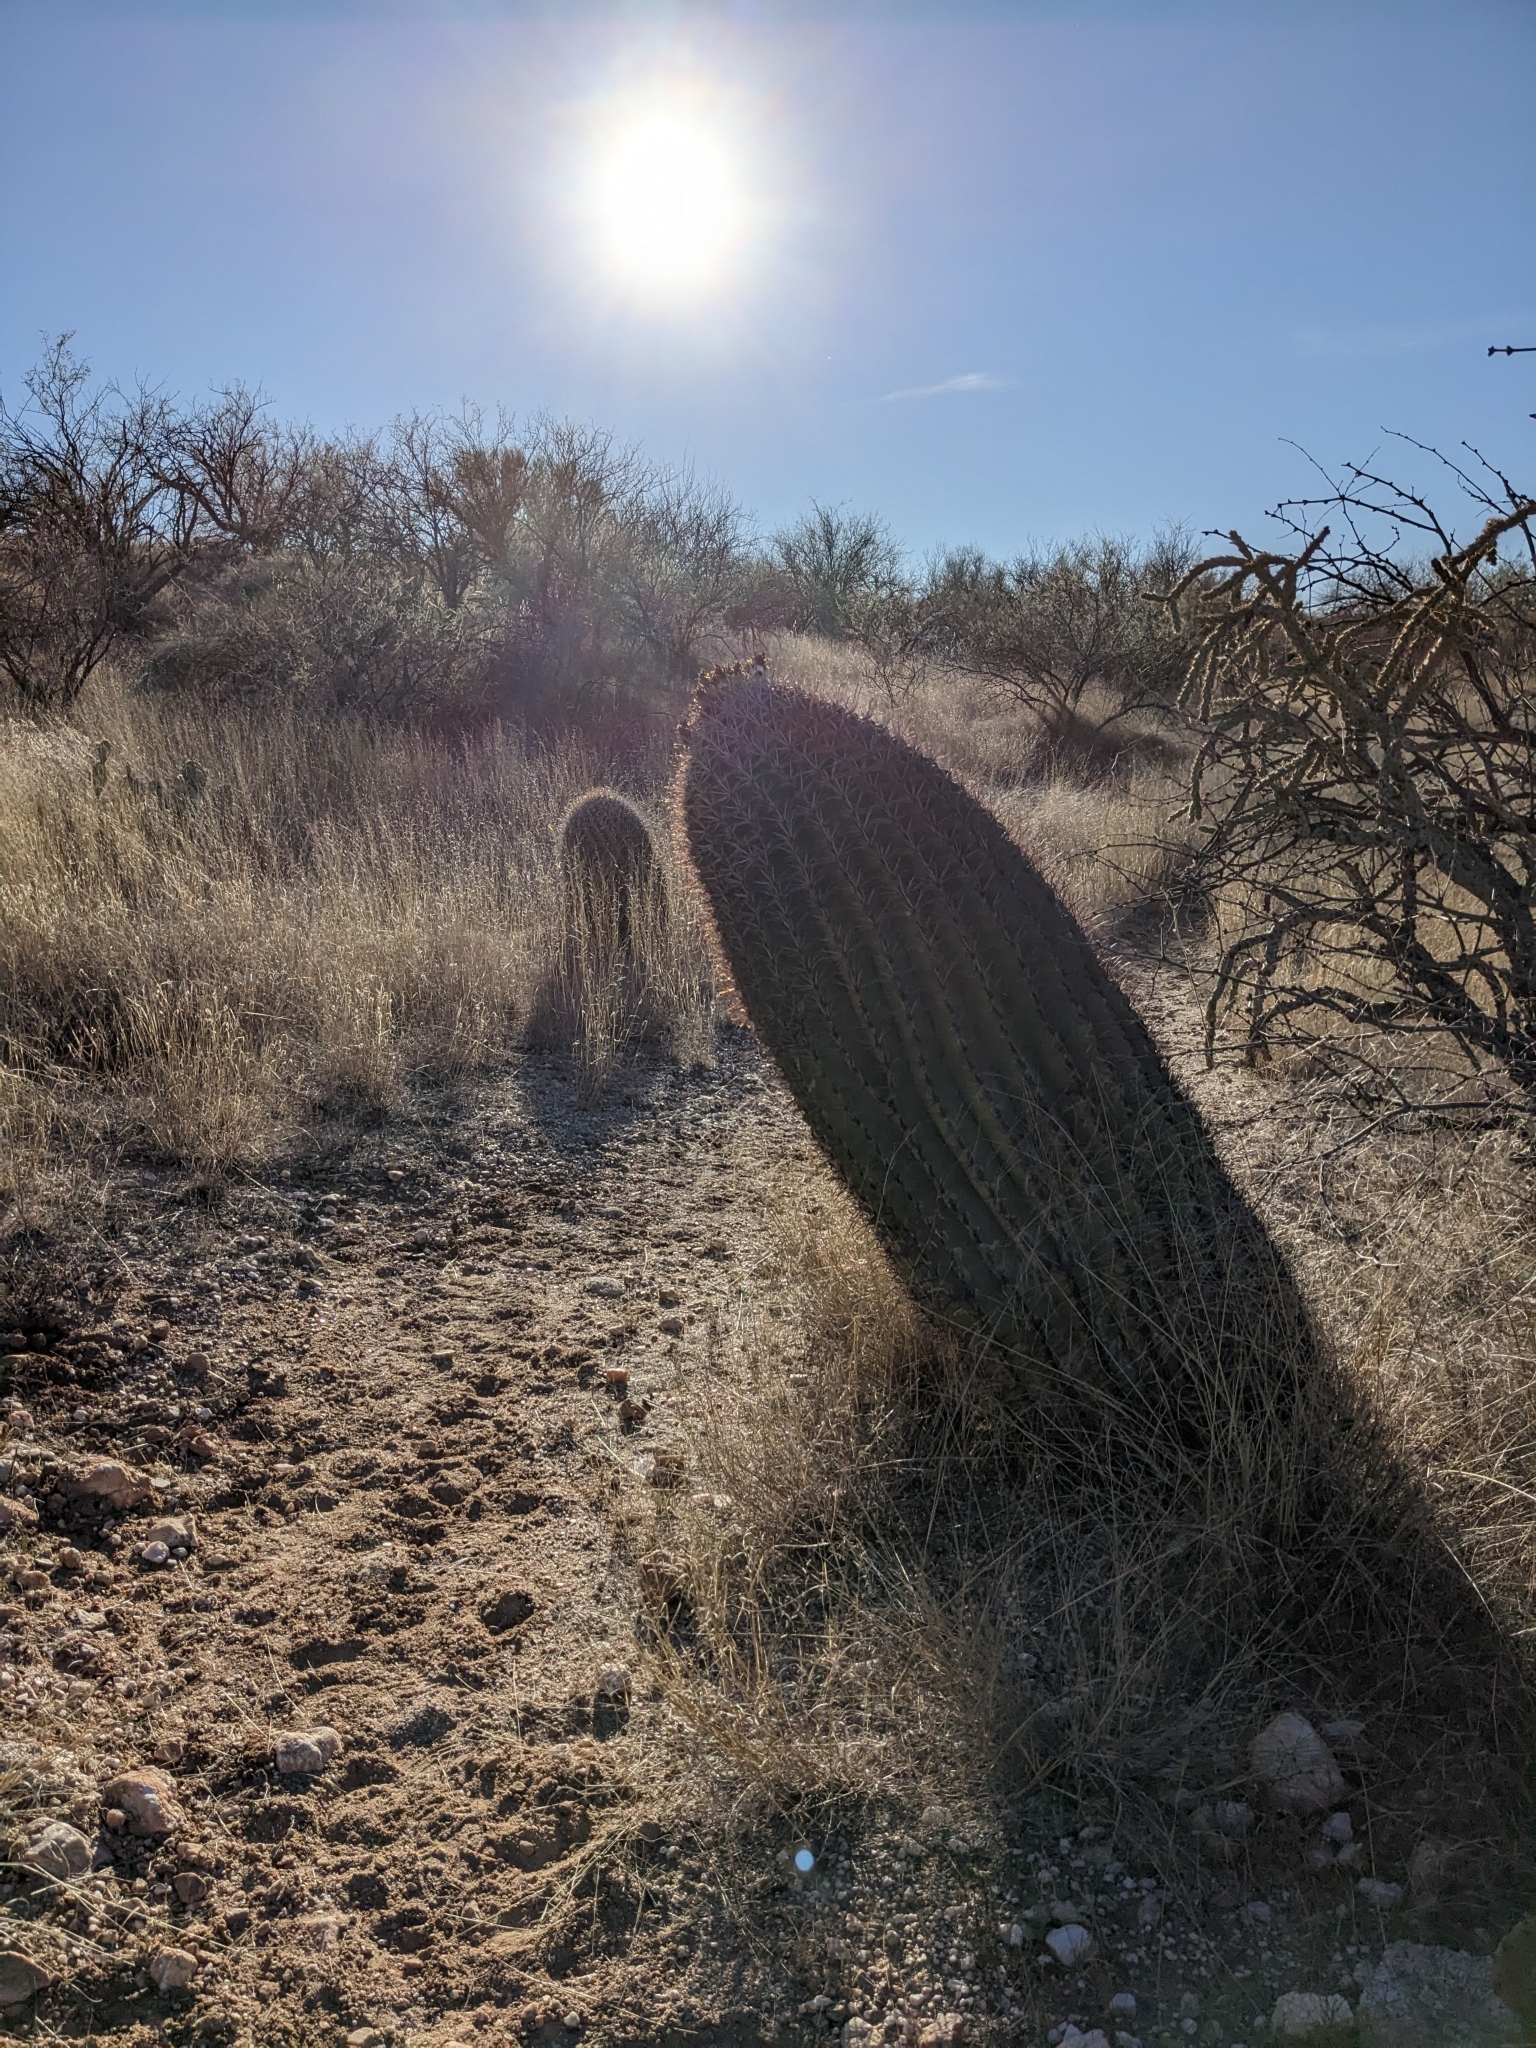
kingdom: Plantae
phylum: Tracheophyta
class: Magnoliopsida
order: Caryophyllales
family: Cactaceae
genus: Ferocactus
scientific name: Ferocactus wislizeni
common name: Candy barrel cactus
